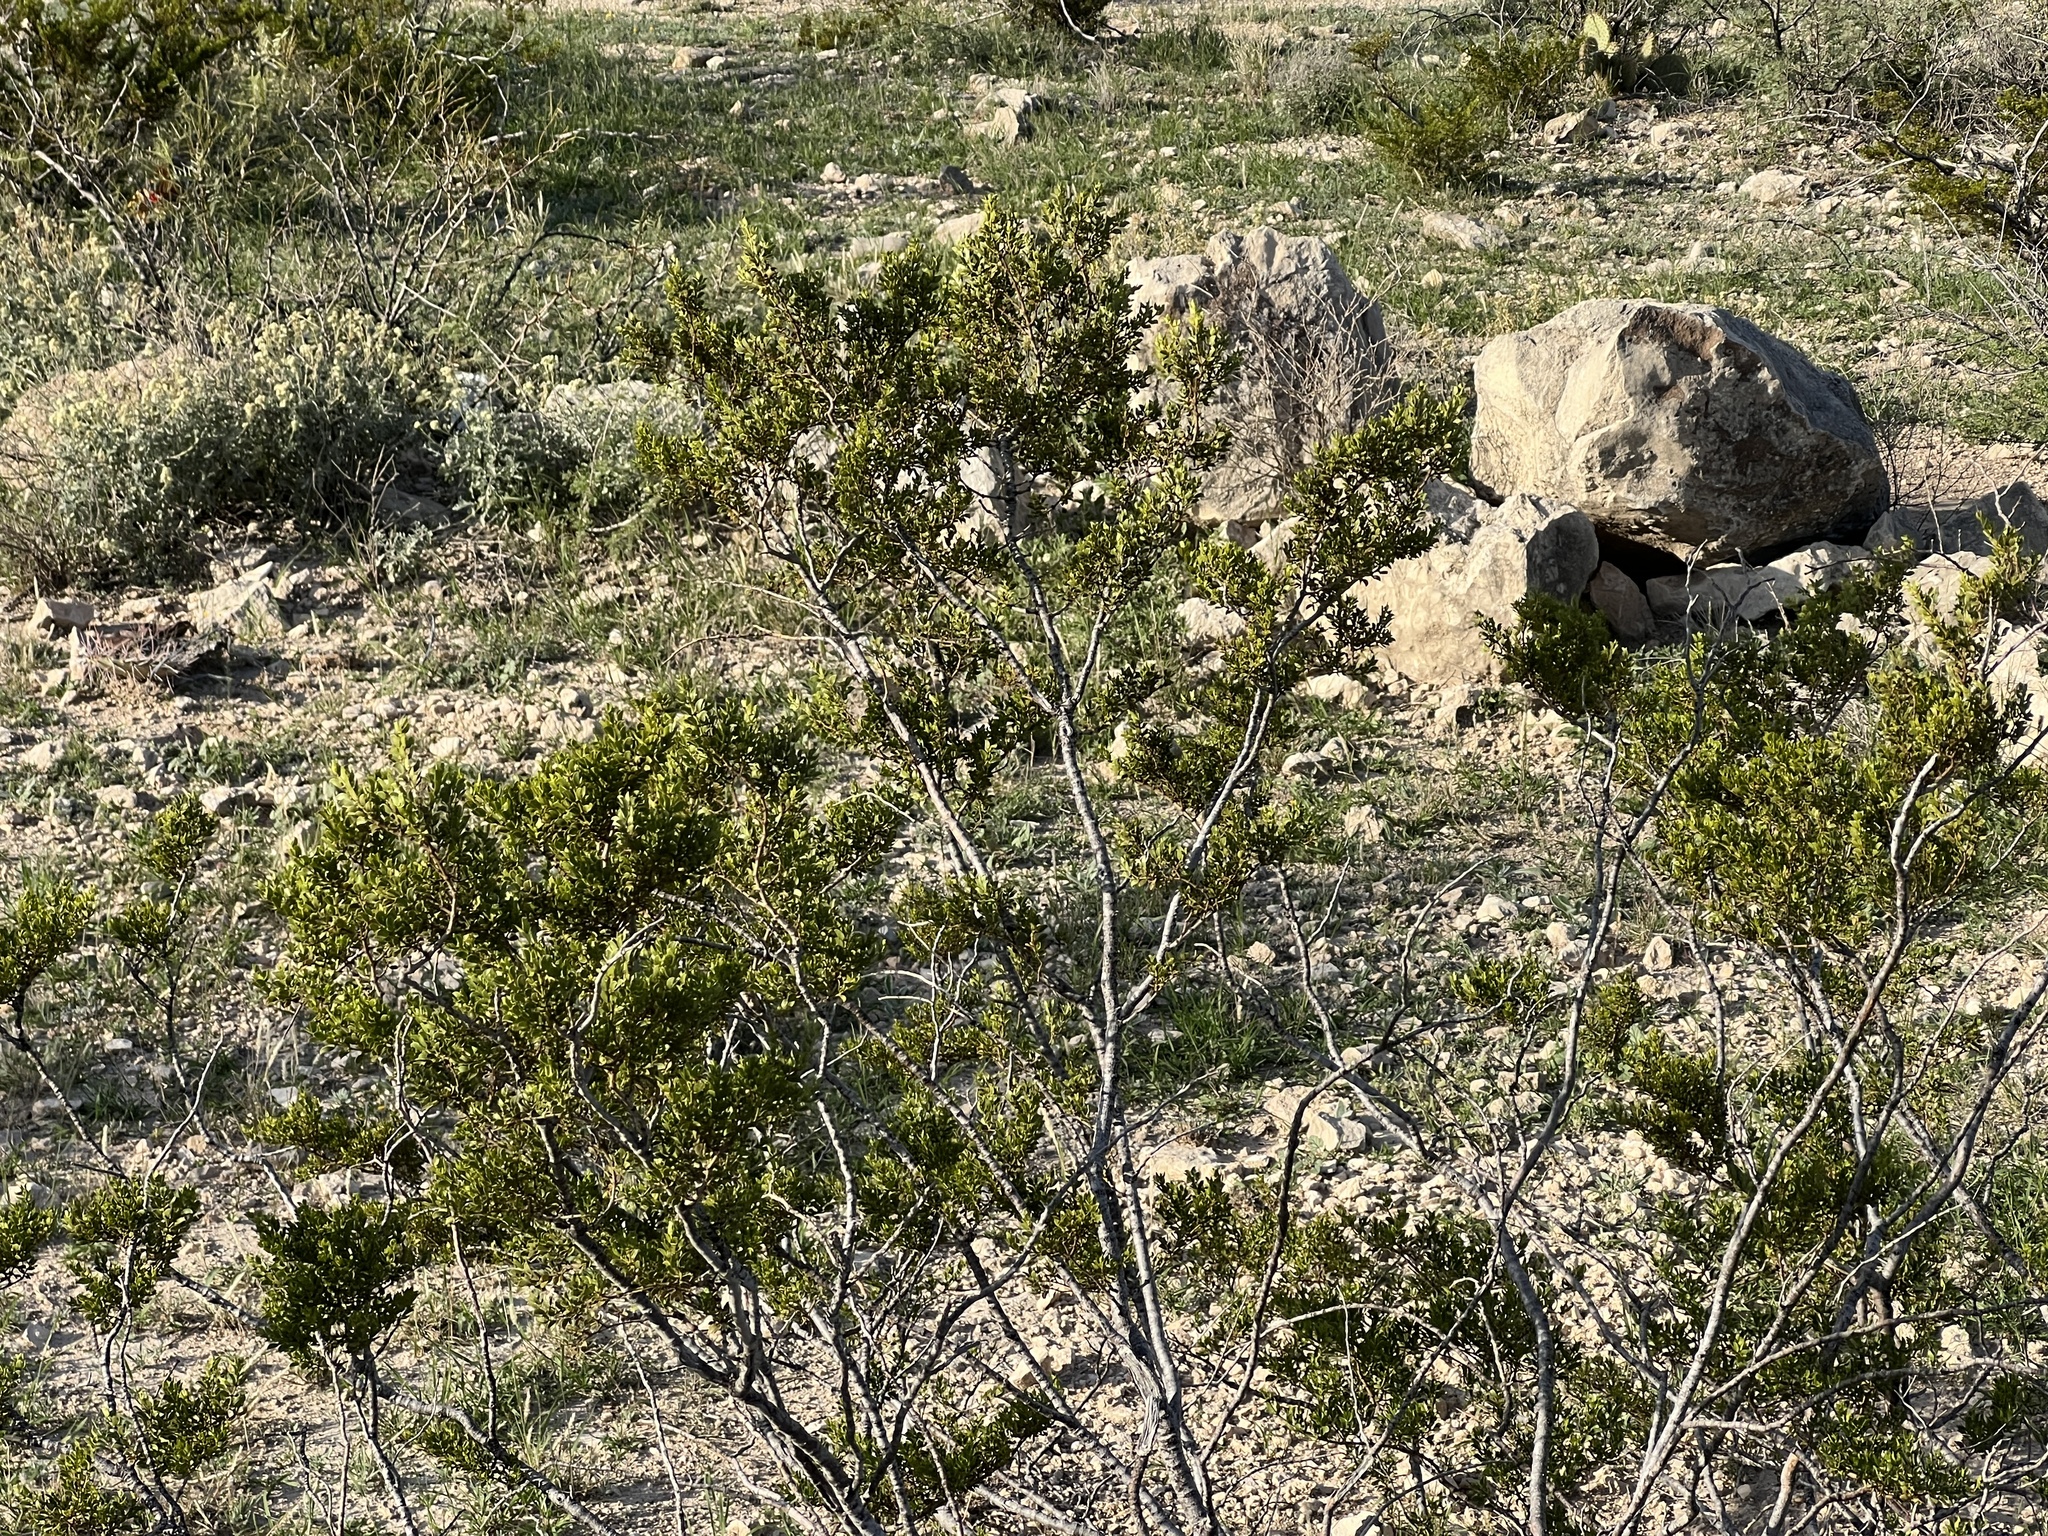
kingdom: Plantae
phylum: Tracheophyta
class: Magnoliopsida
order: Zygophyllales
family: Zygophyllaceae
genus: Larrea
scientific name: Larrea tridentata
